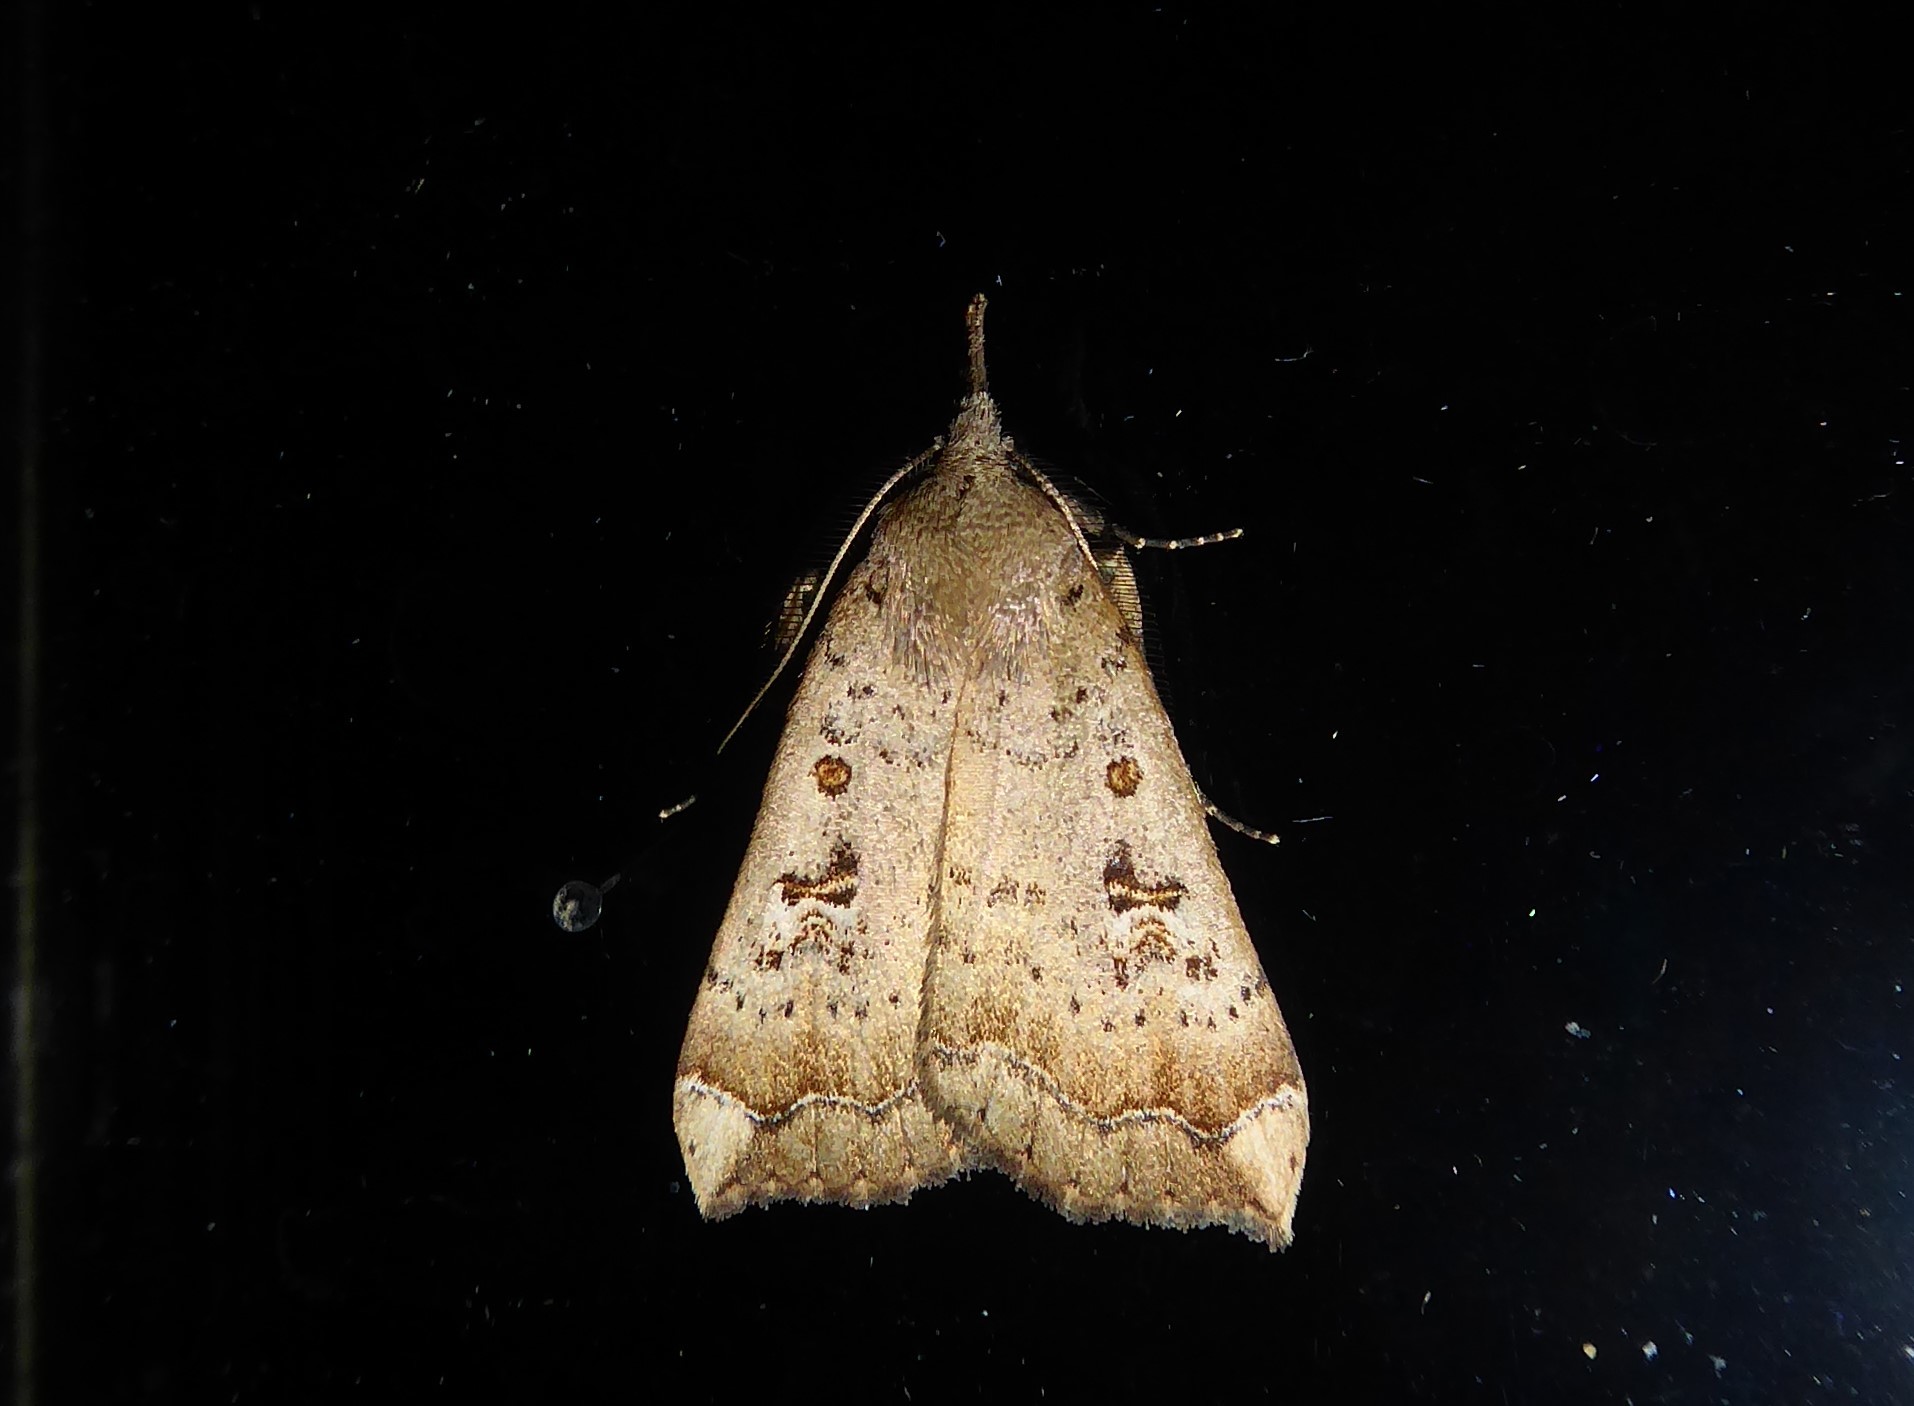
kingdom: Animalia
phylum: Arthropoda
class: Insecta
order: Lepidoptera
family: Erebidae
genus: Rhapsa
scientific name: Rhapsa scotosialis
